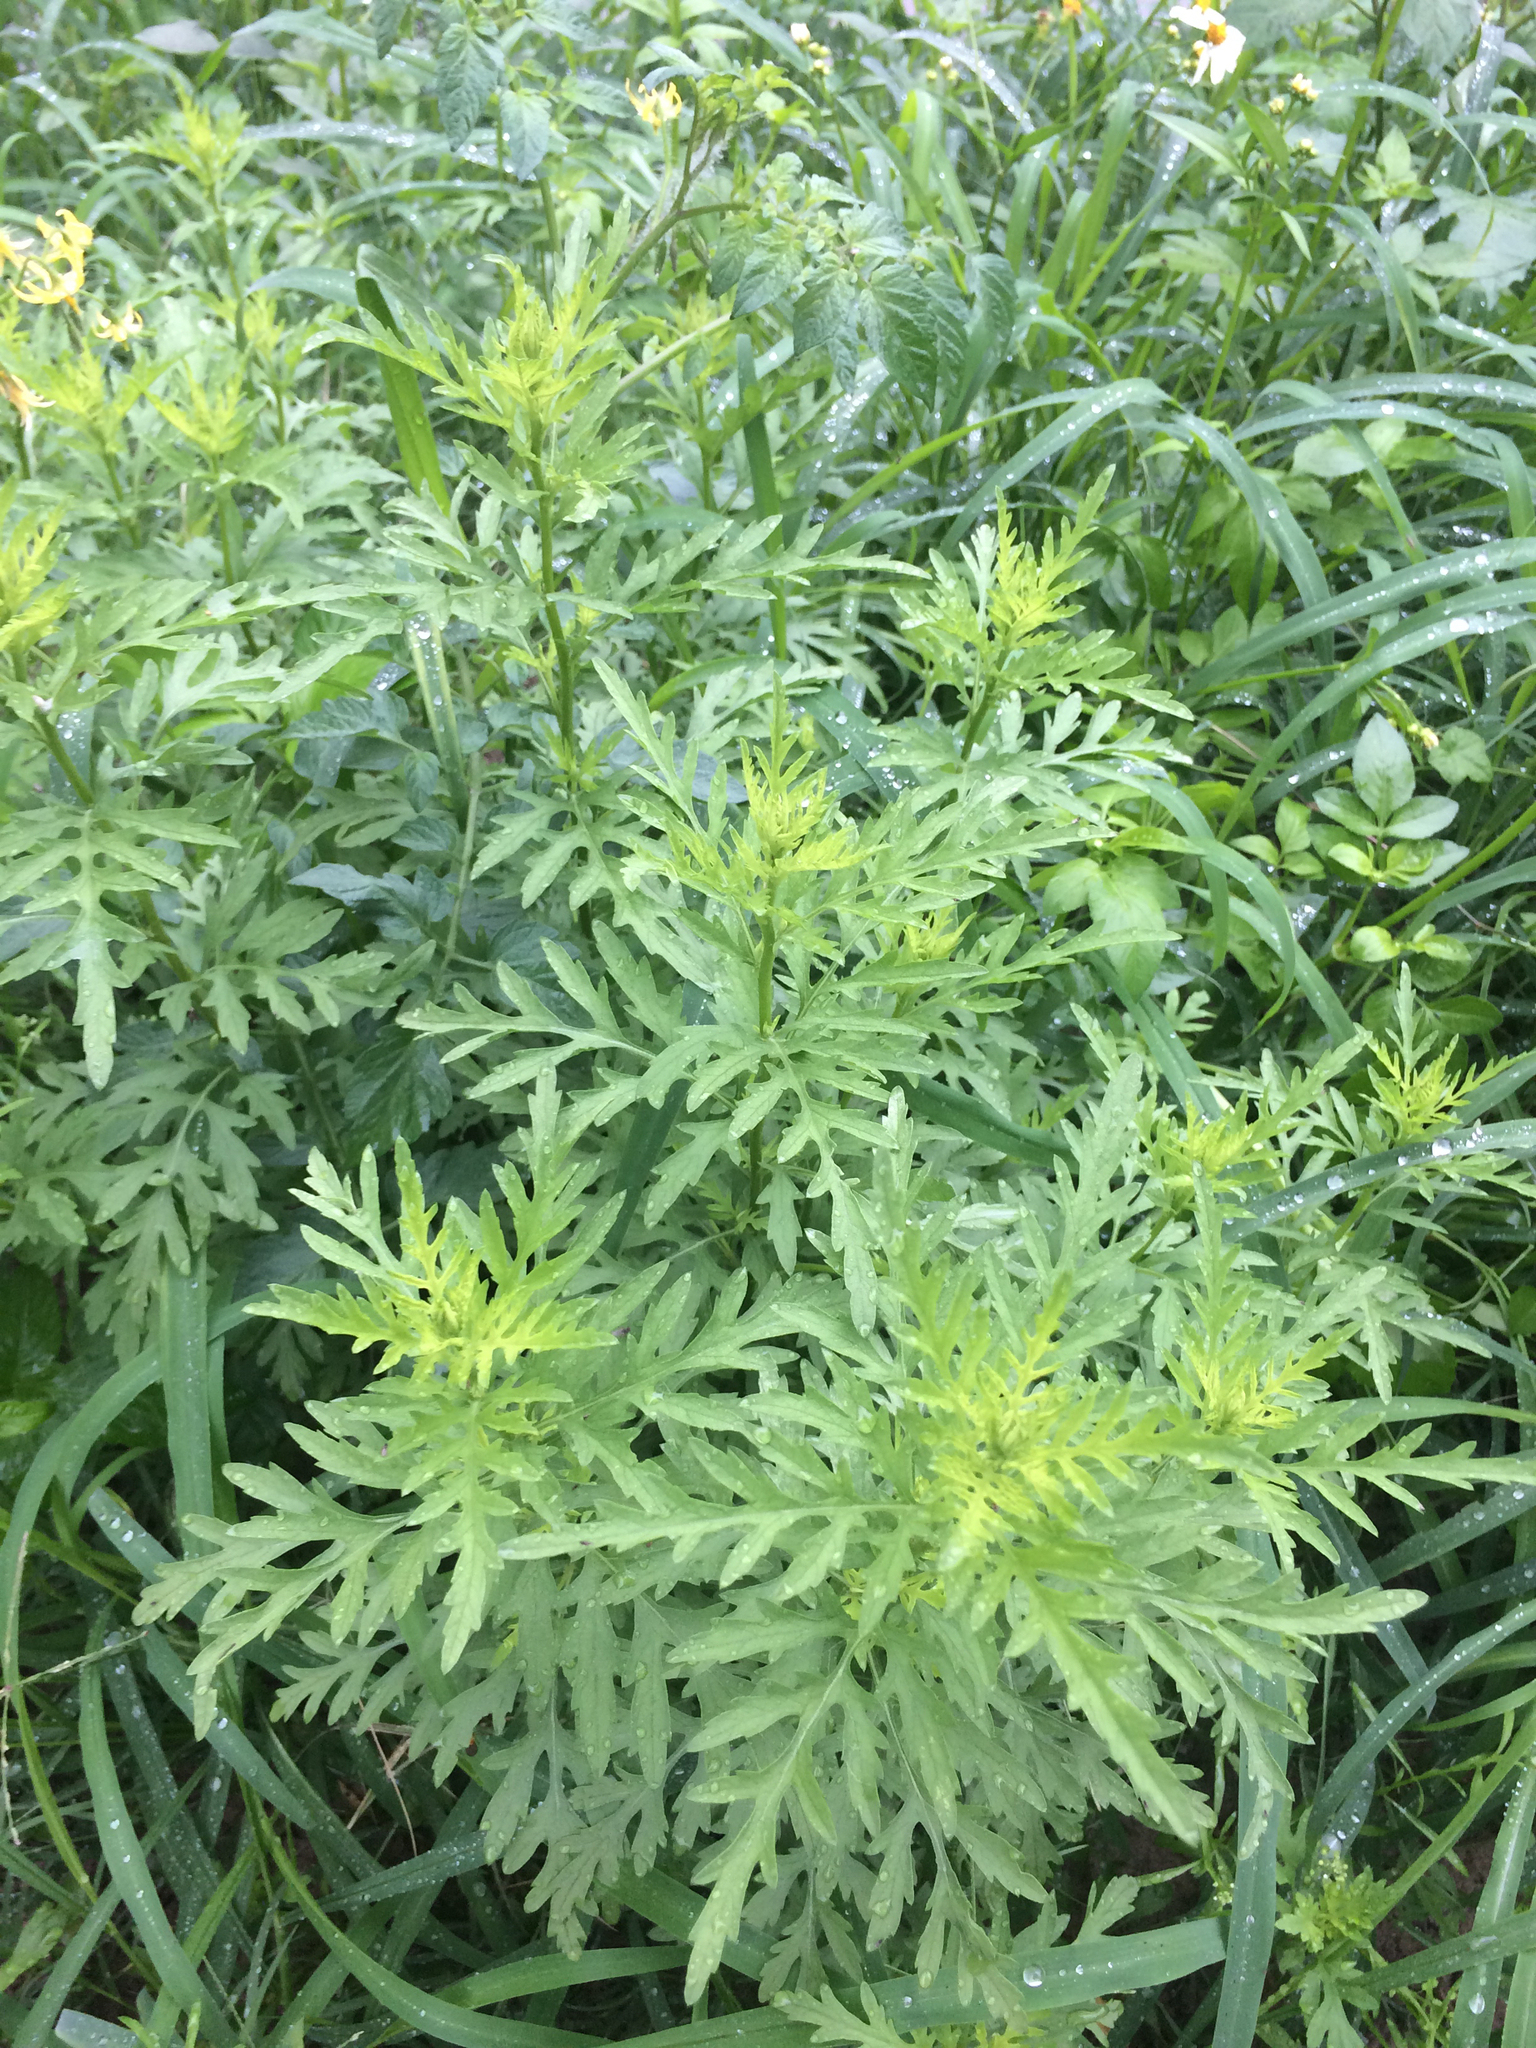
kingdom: Plantae
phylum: Tracheophyta
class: Magnoliopsida
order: Asterales
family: Asteraceae
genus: Ambrosia
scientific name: Ambrosia psilostachya
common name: Perennial ragweed
